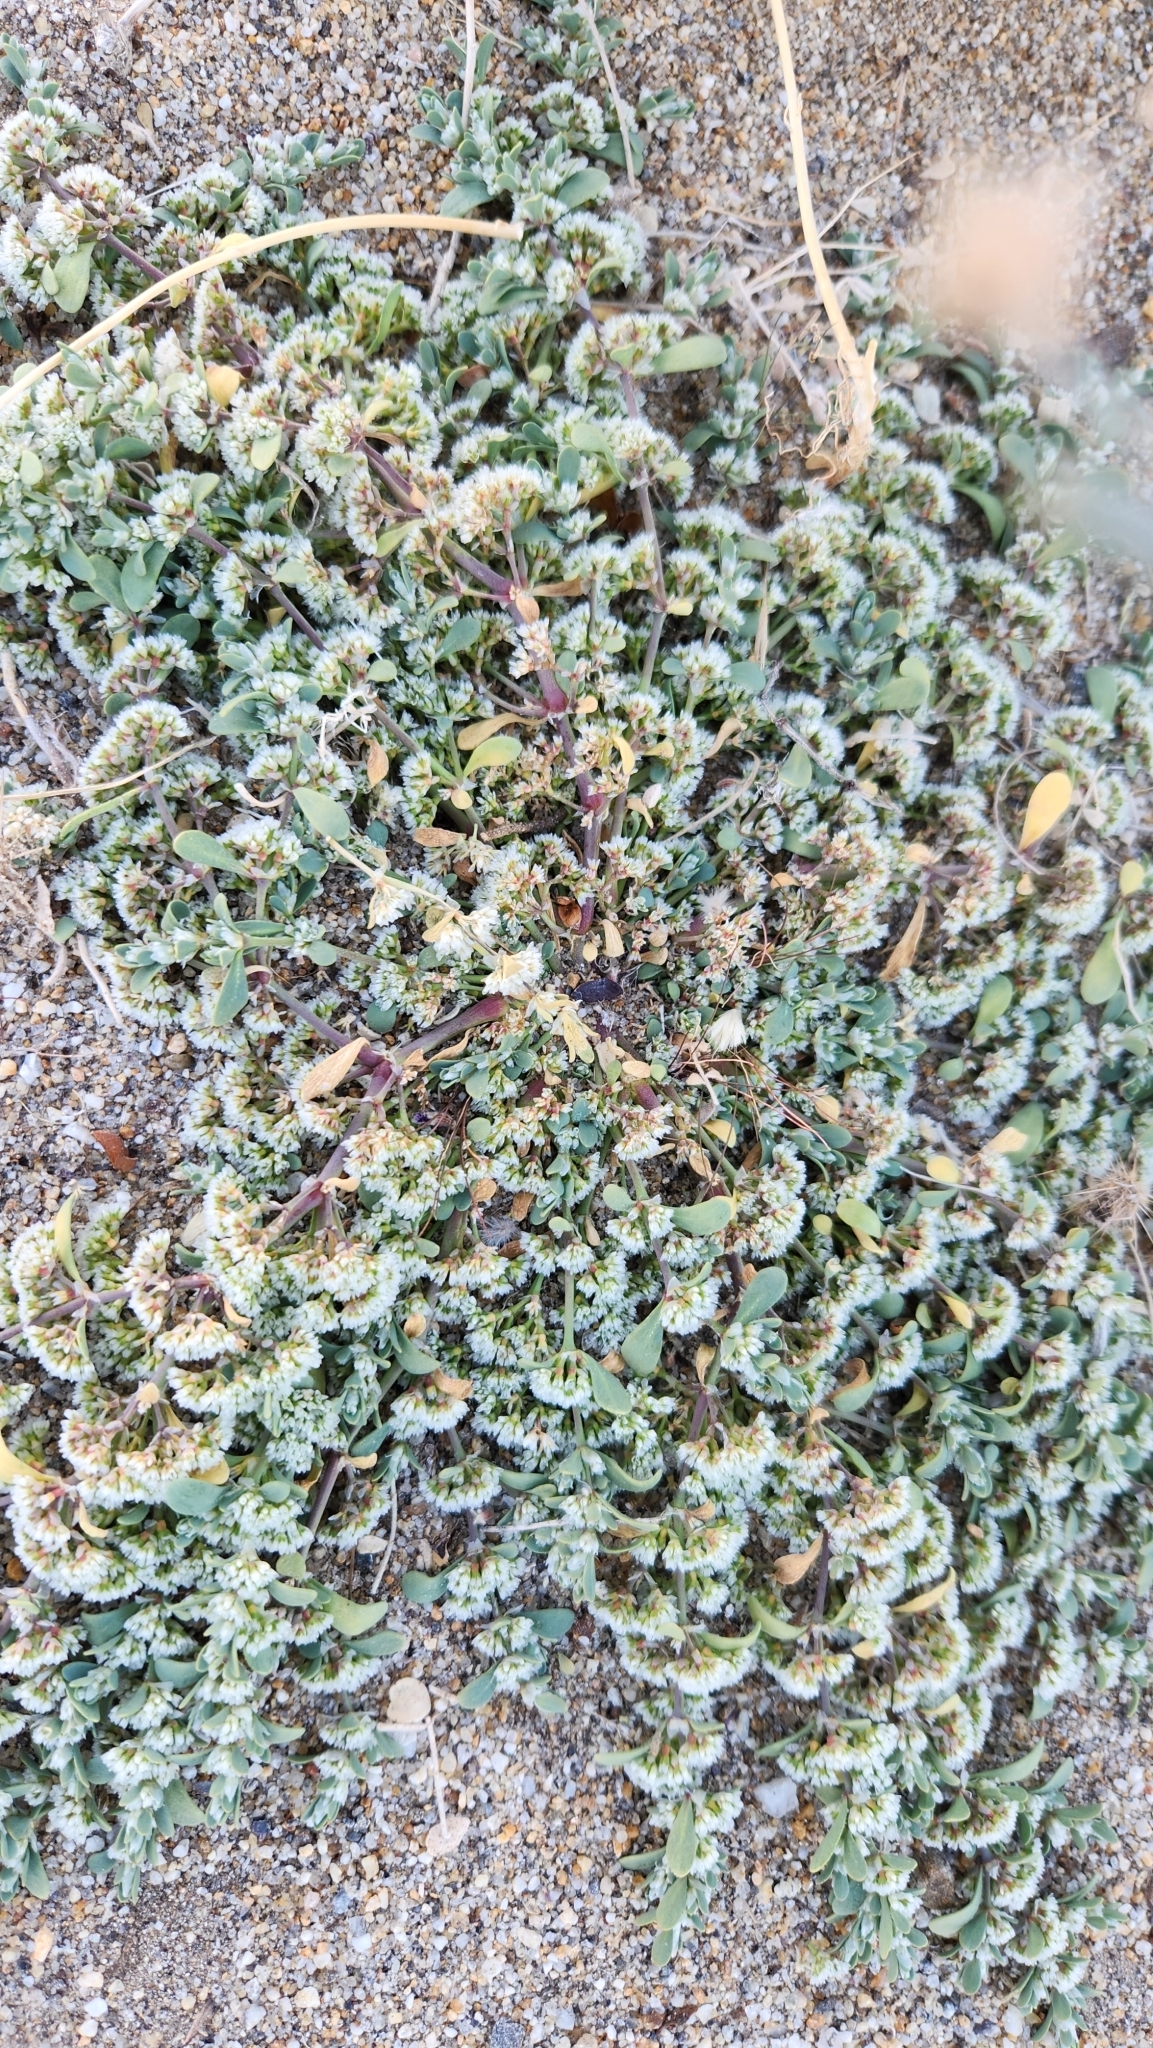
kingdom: Plantae
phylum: Tracheophyta
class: Magnoliopsida
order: Caryophyllales
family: Caryophyllaceae
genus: Achyronychia
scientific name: Achyronychia cooperi
